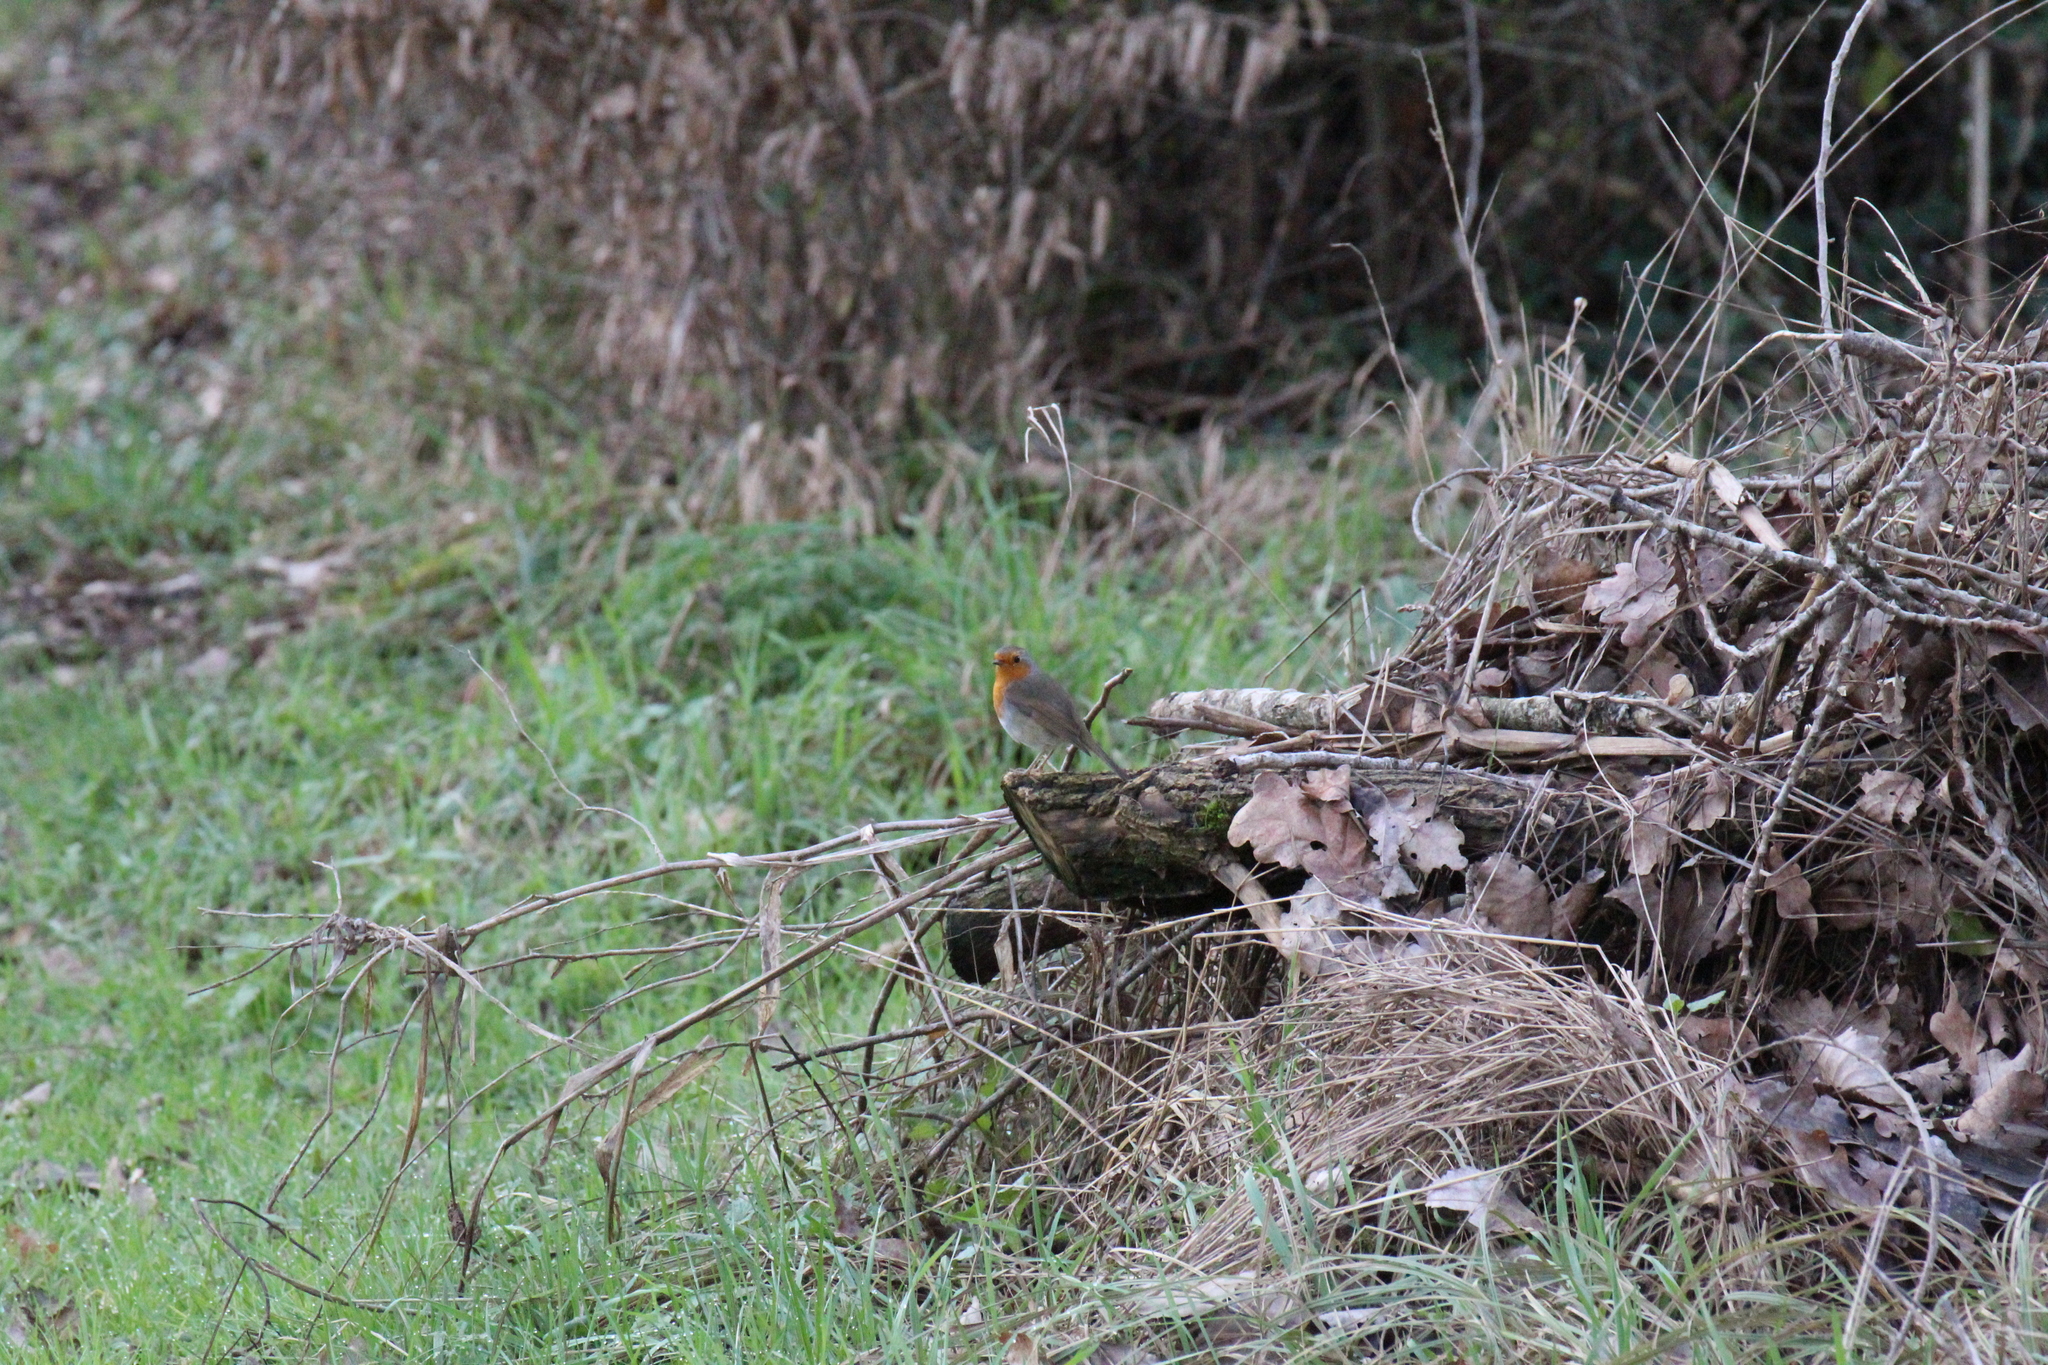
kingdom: Animalia
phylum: Chordata
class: Aves
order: Passeriformes
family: Muscicapidae
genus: Erithacus
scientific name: Erithacus rubecula
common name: European robin
